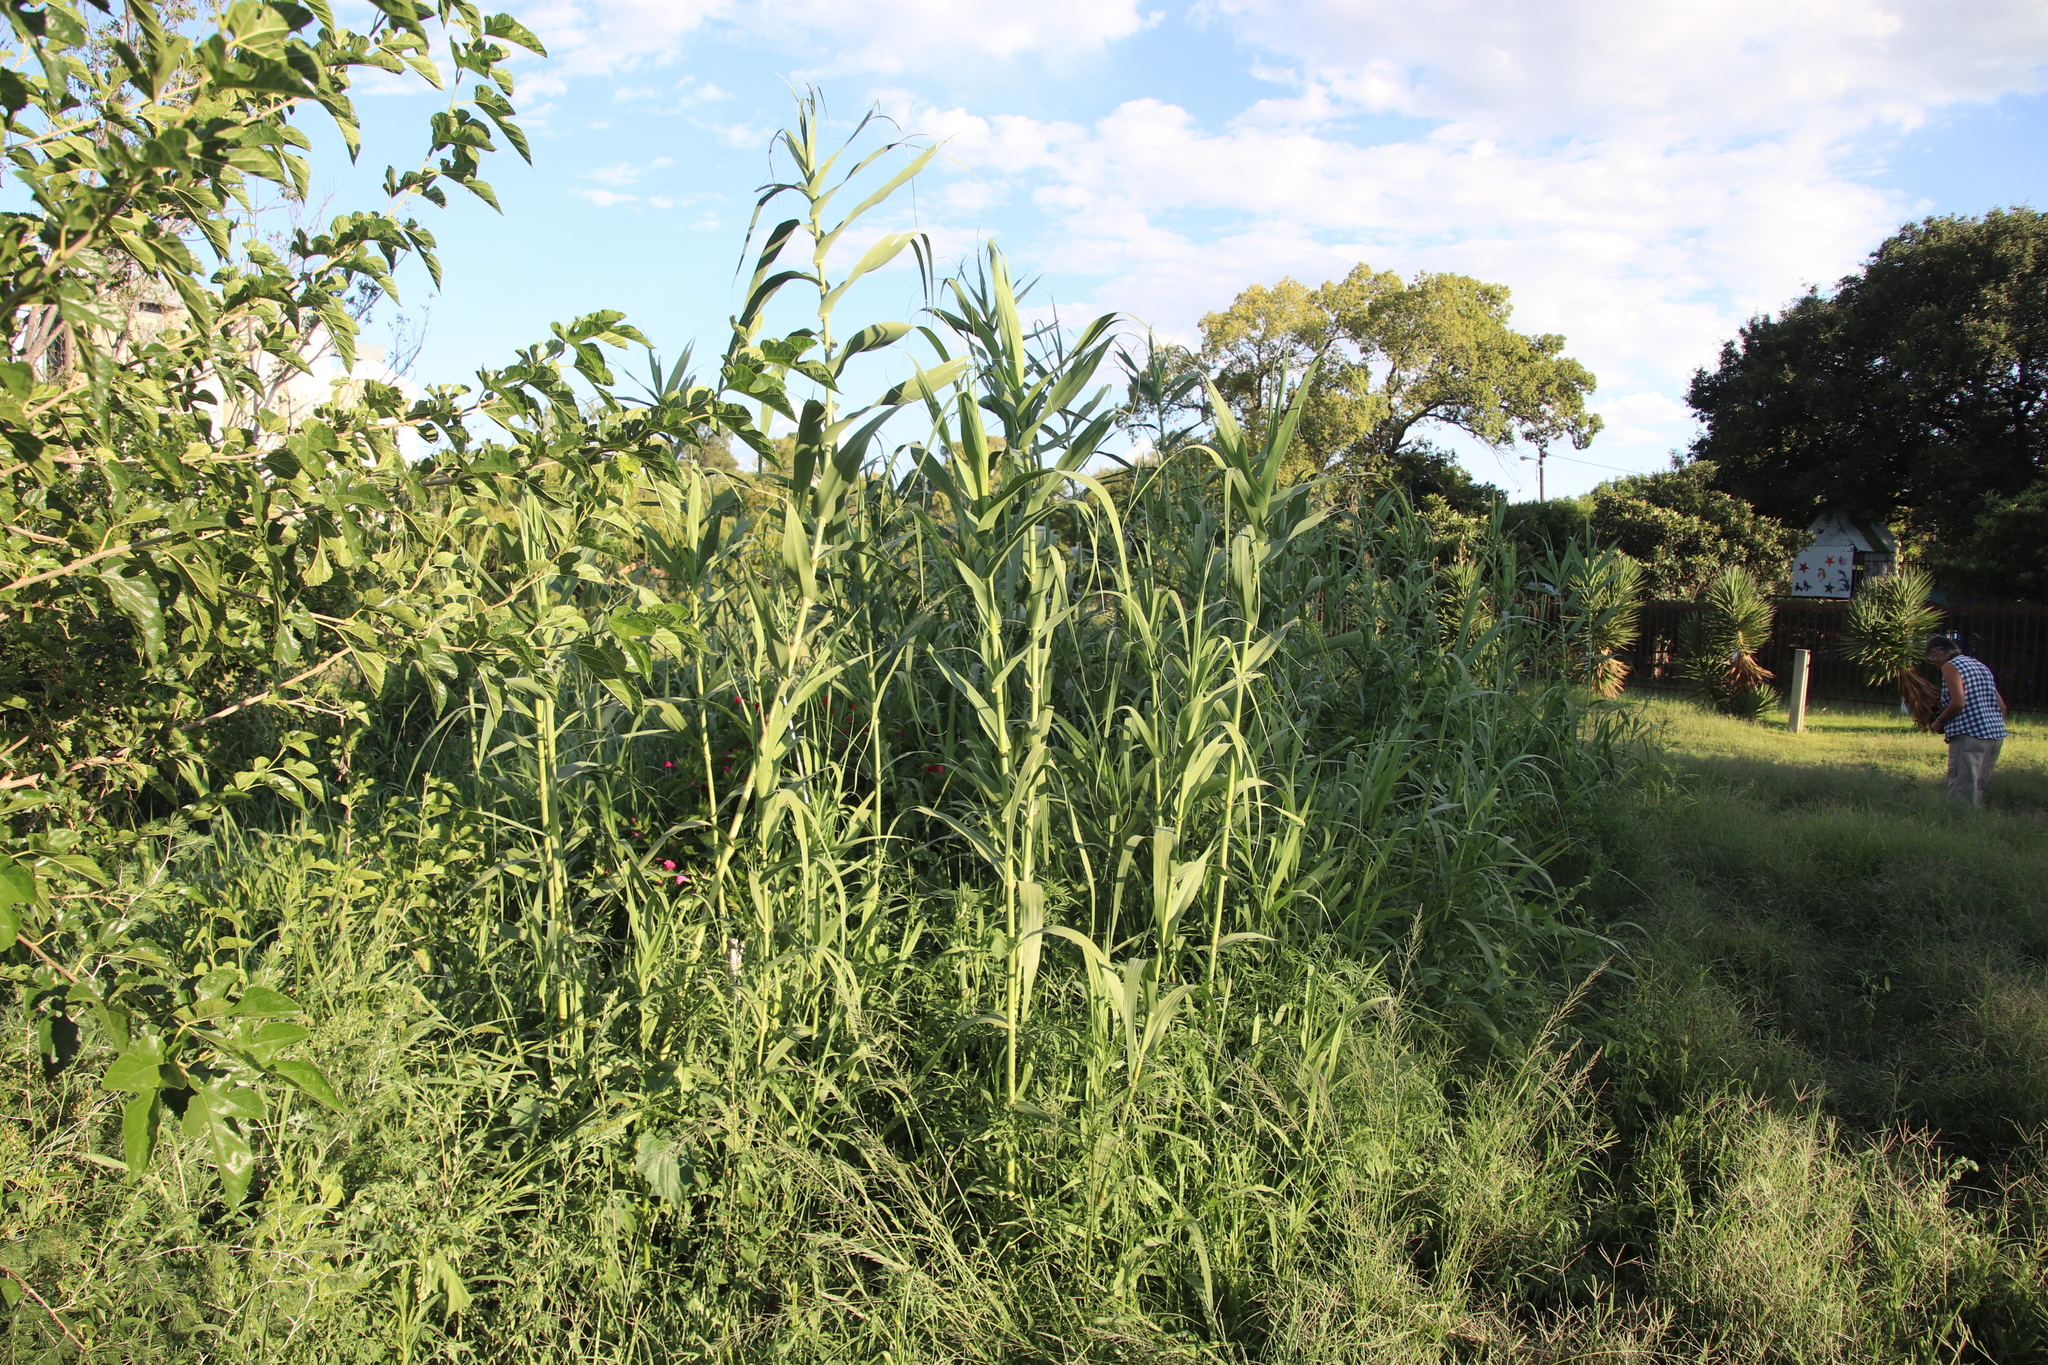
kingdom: Plantae
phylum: Tracheophyta
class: Liliopsida
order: Poales
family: Poaceae
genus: Arundo
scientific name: Arundo donax
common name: Giant reed
